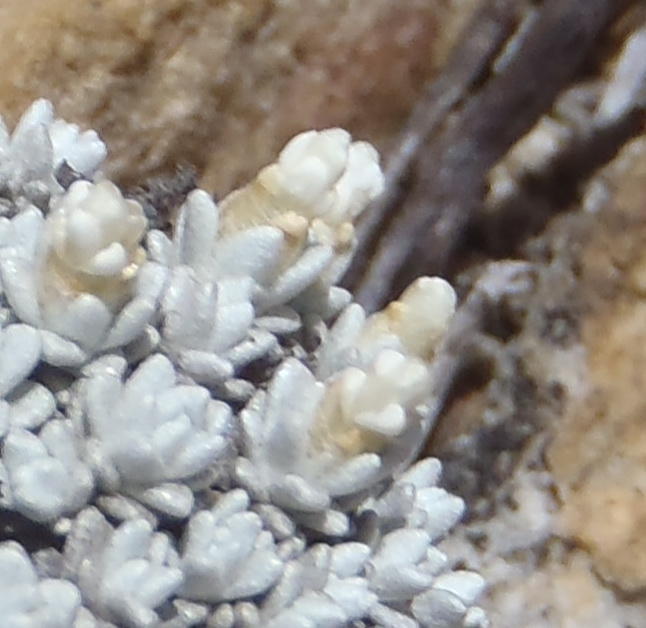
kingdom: Plantae
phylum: Tracheophyta
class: Magnoliopsida
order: Asterales
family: Asteraceae
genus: Helichrysum
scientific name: Helichrysum saxicola
